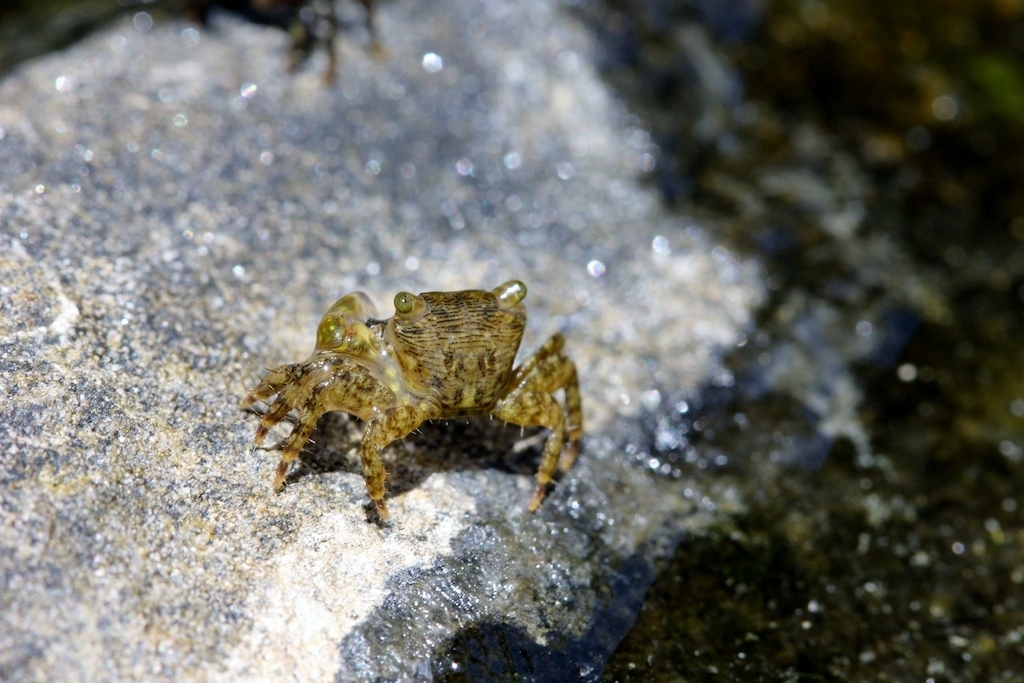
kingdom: Animalia
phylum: Arthropoda
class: Malacostraca
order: Decapoda
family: Grapsidae
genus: Pachygrapsus
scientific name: Pachygrapsus transversus
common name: Mottled shore crab
